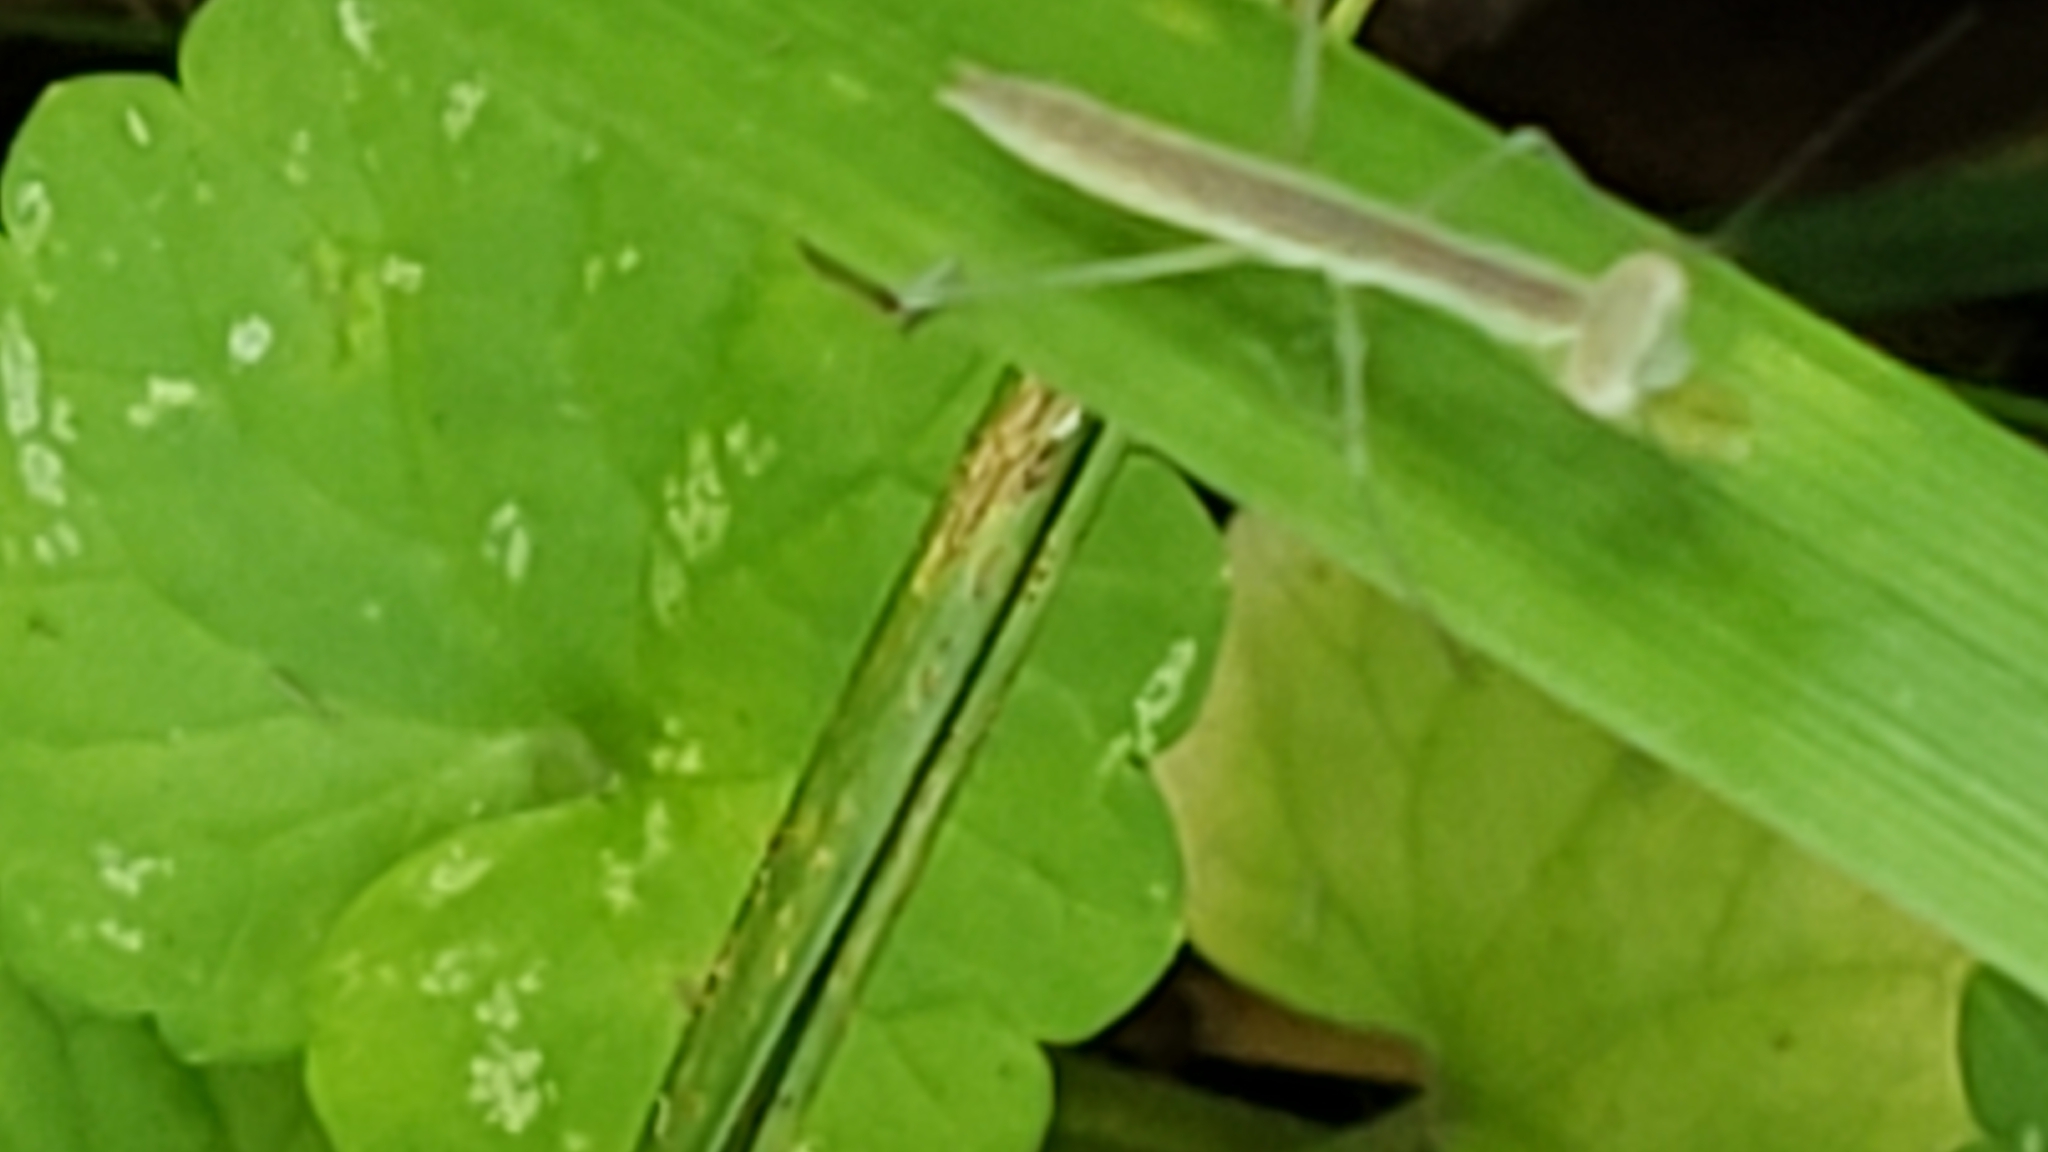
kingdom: Animalia
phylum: Arthropoda
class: Insecta
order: Mantodea
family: Mantidae
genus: Tenodera
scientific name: Tenodera sinensis
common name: Chinese mantis
